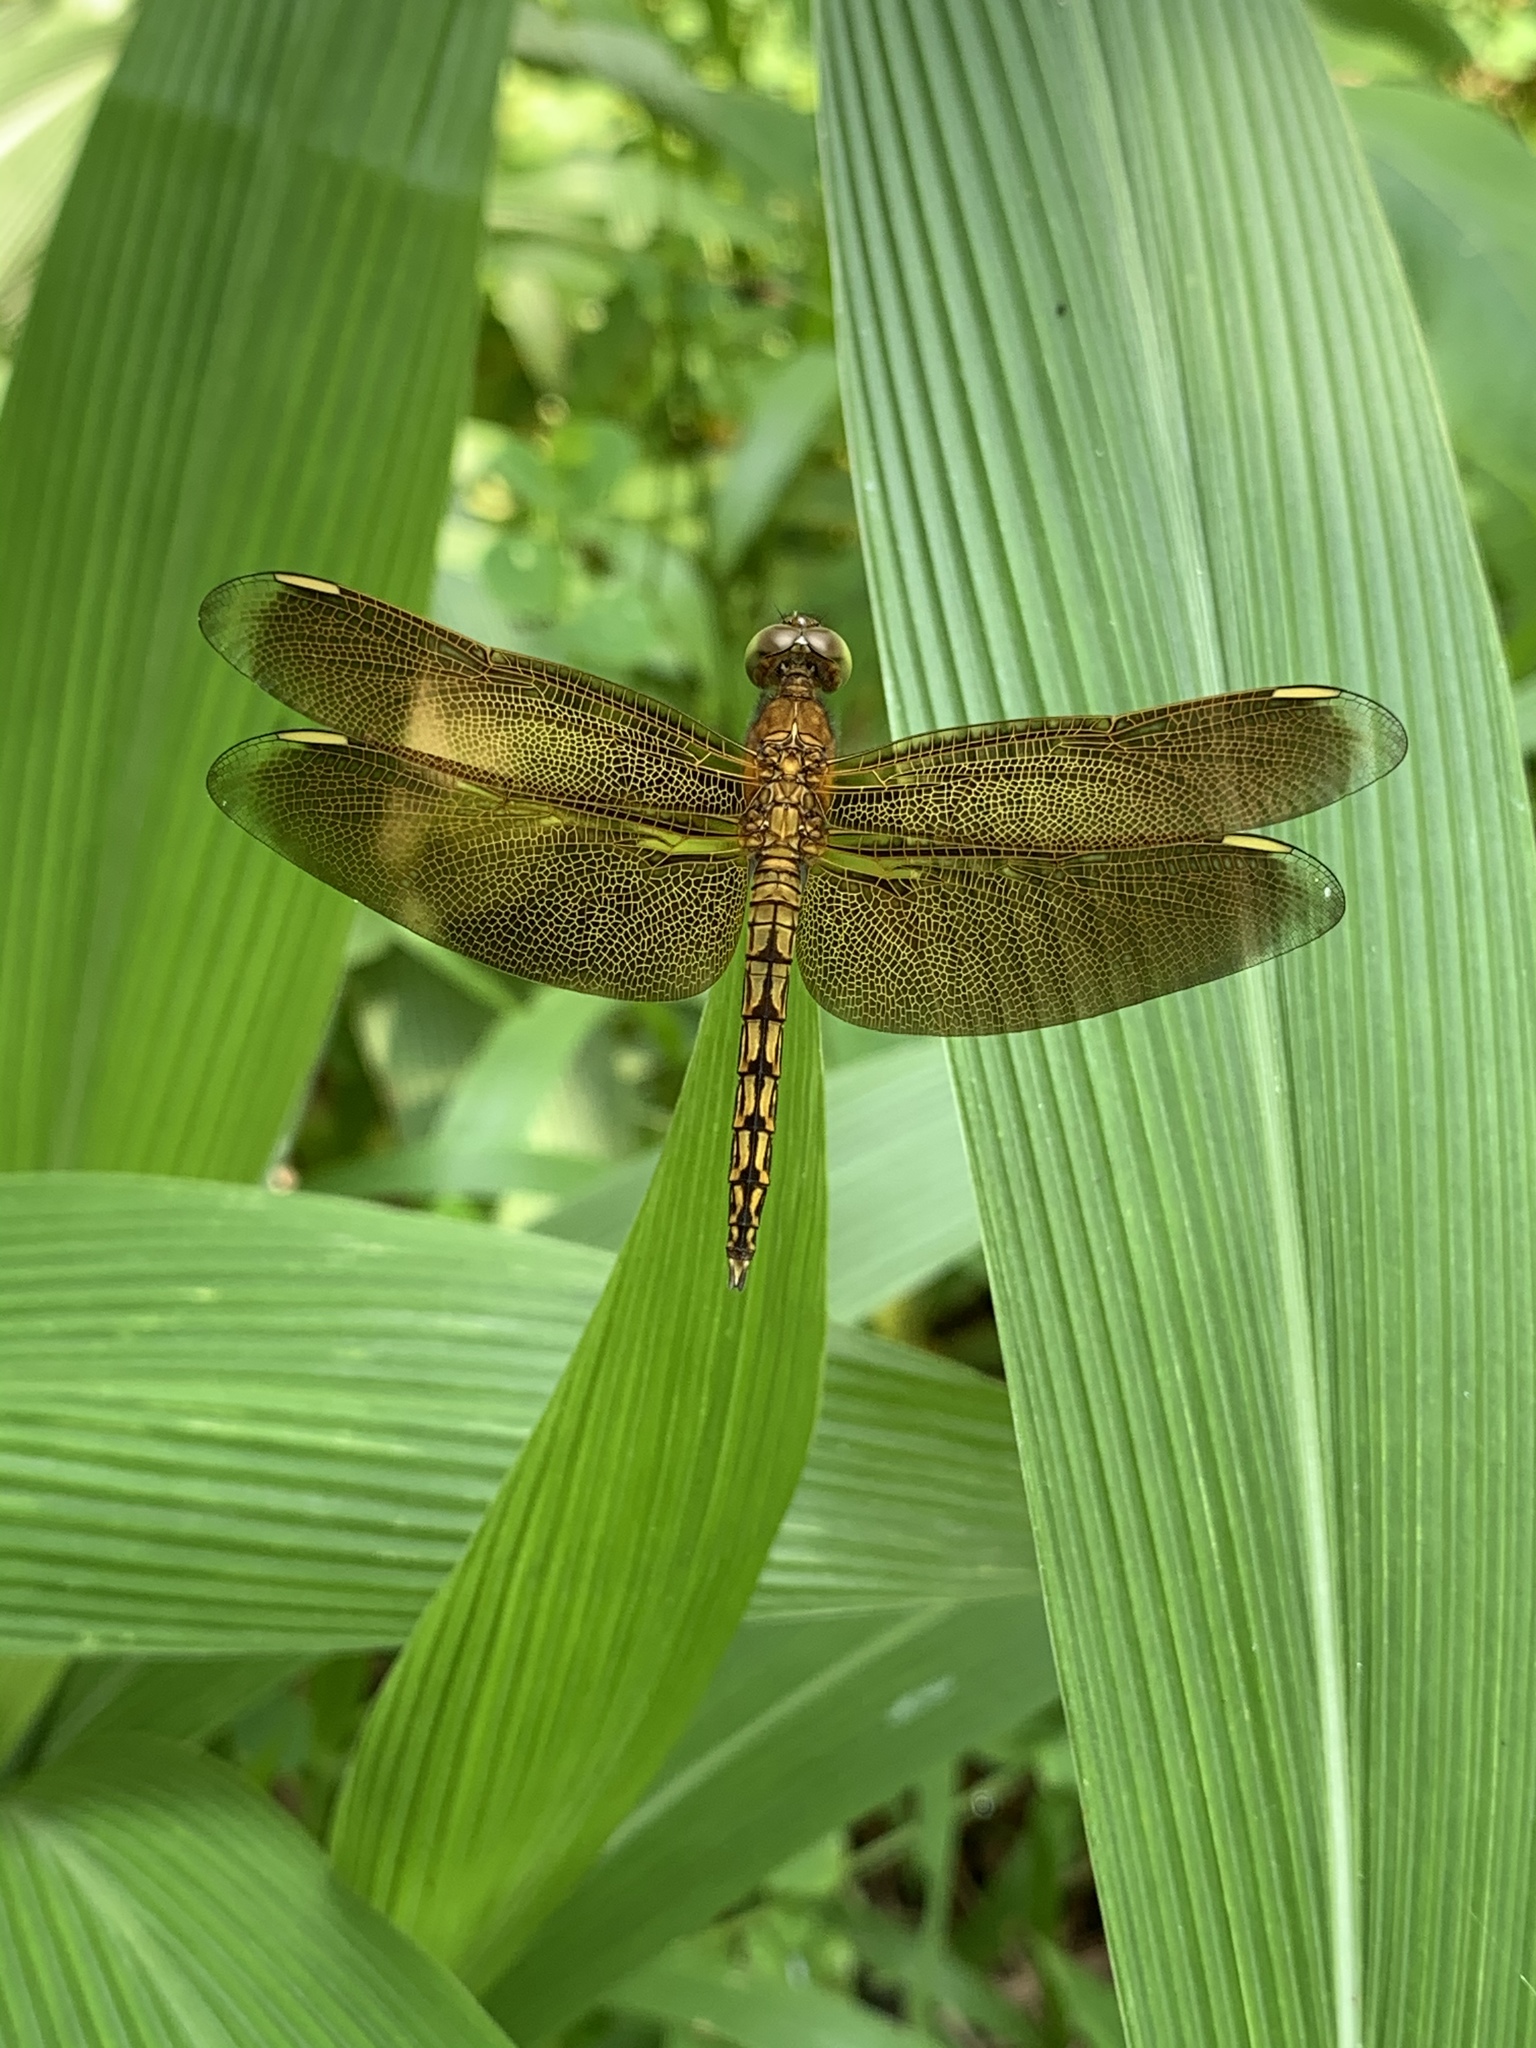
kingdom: Animalia
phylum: Arthropoda
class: Insecta
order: Odonata
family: Libellulidae
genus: Neurothemis
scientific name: Neurothemis taiwanensis
